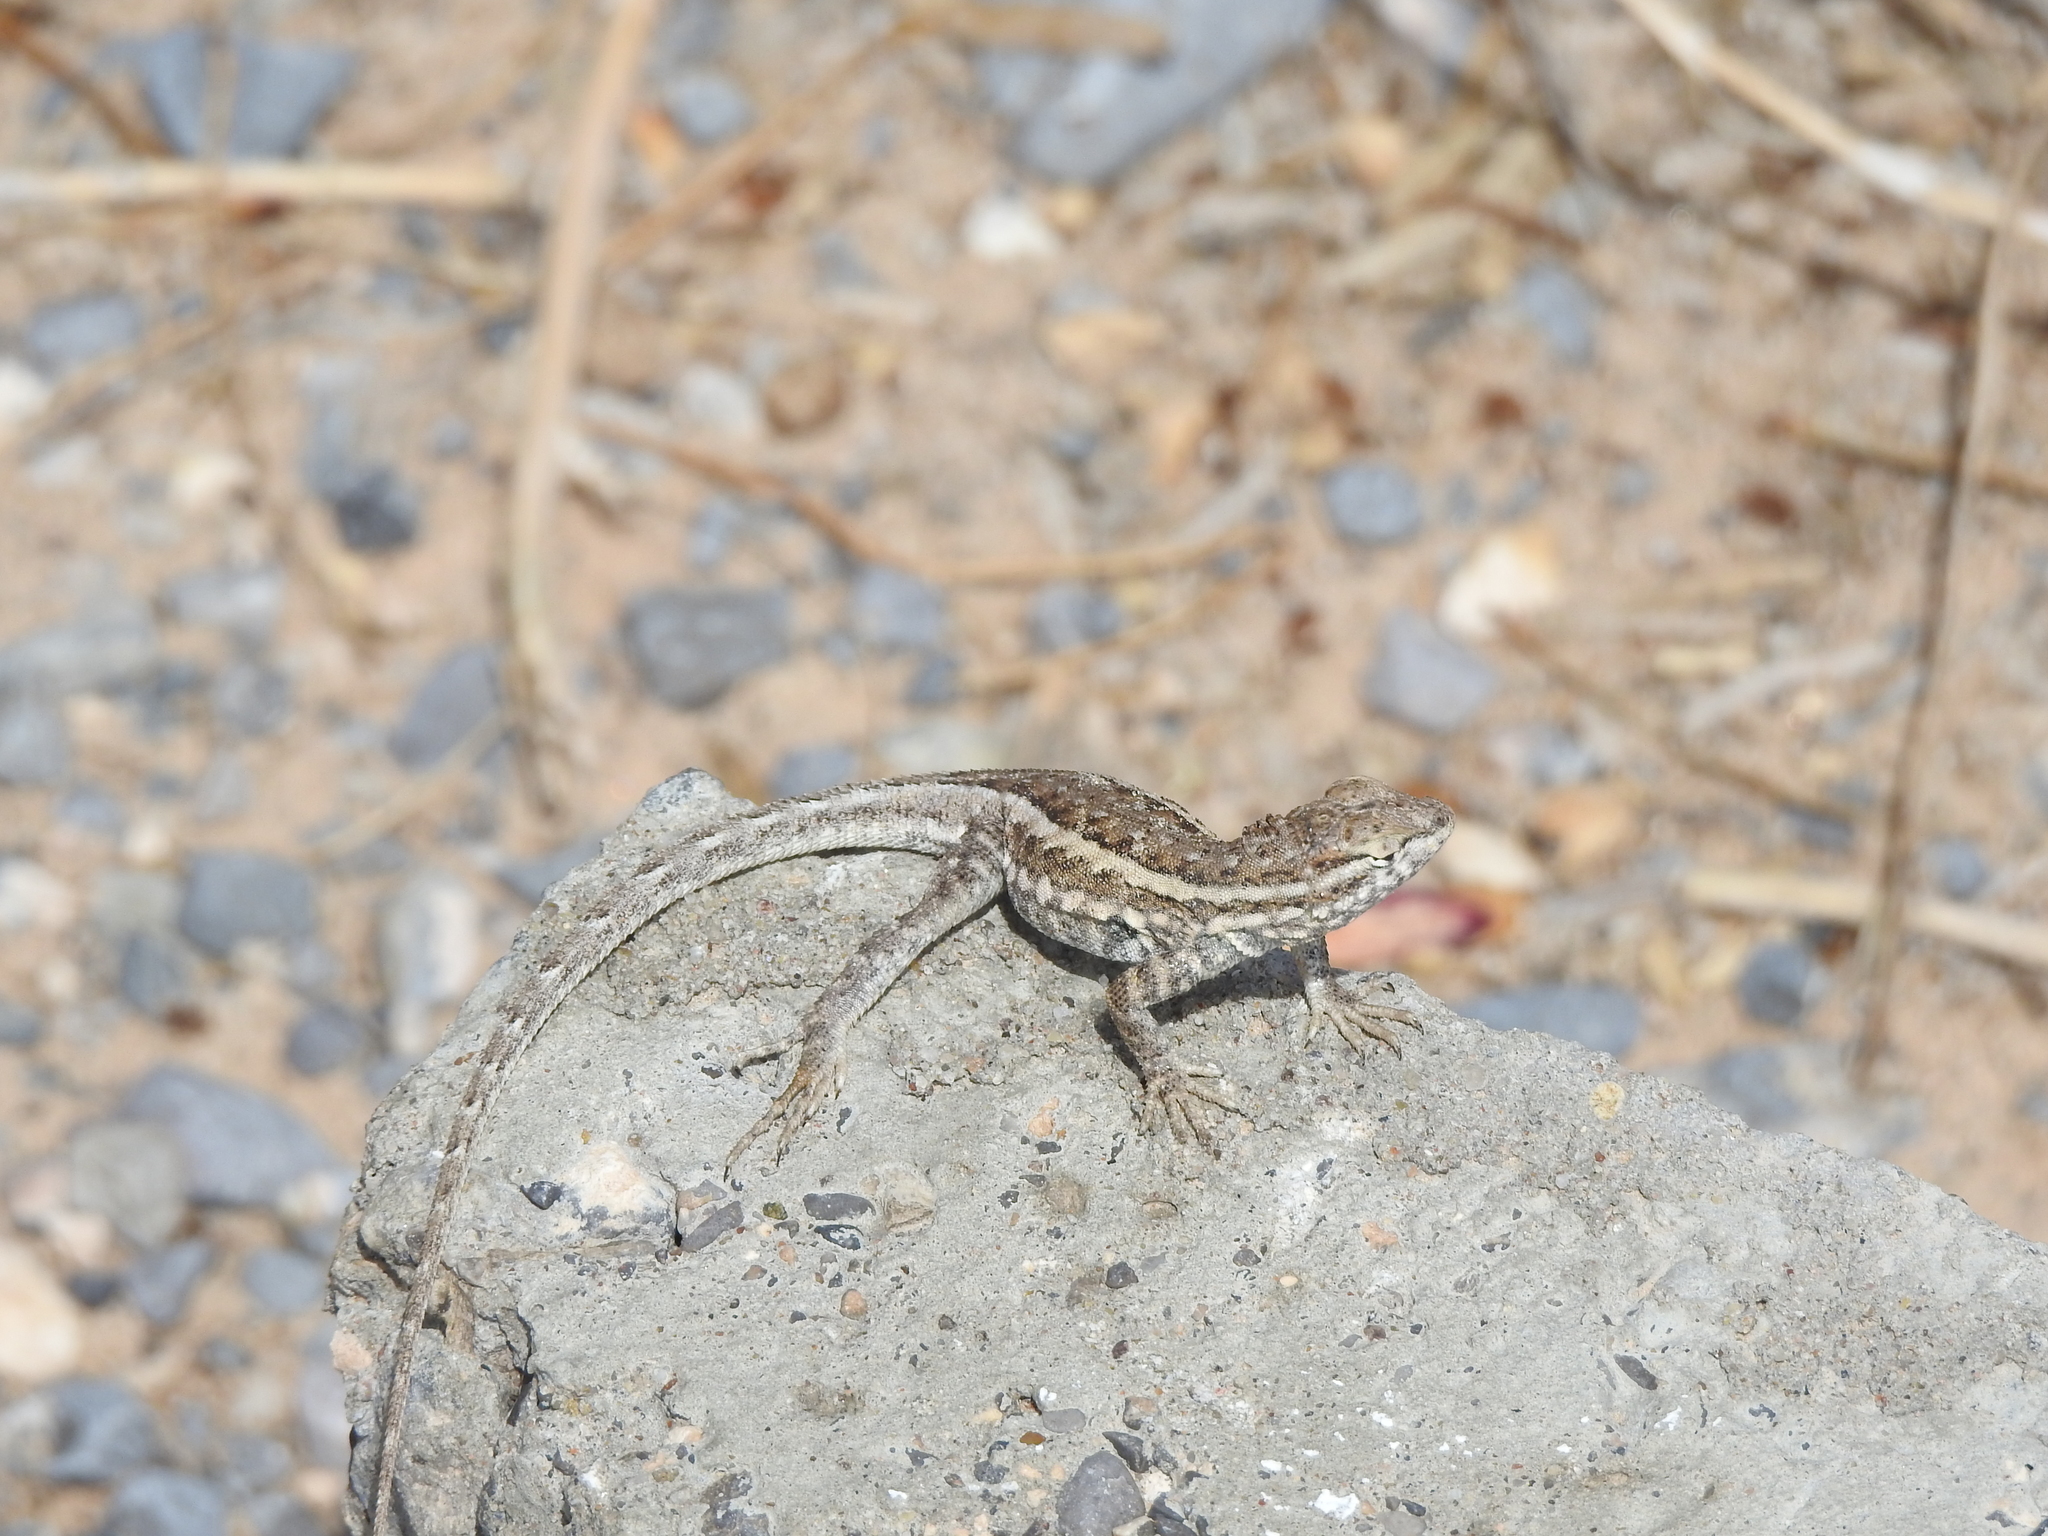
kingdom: Animalia
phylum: Chordata
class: Squamata
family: Phrynosomatidae
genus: Uta
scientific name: Uta stansburiana
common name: Side-blotched lizard
